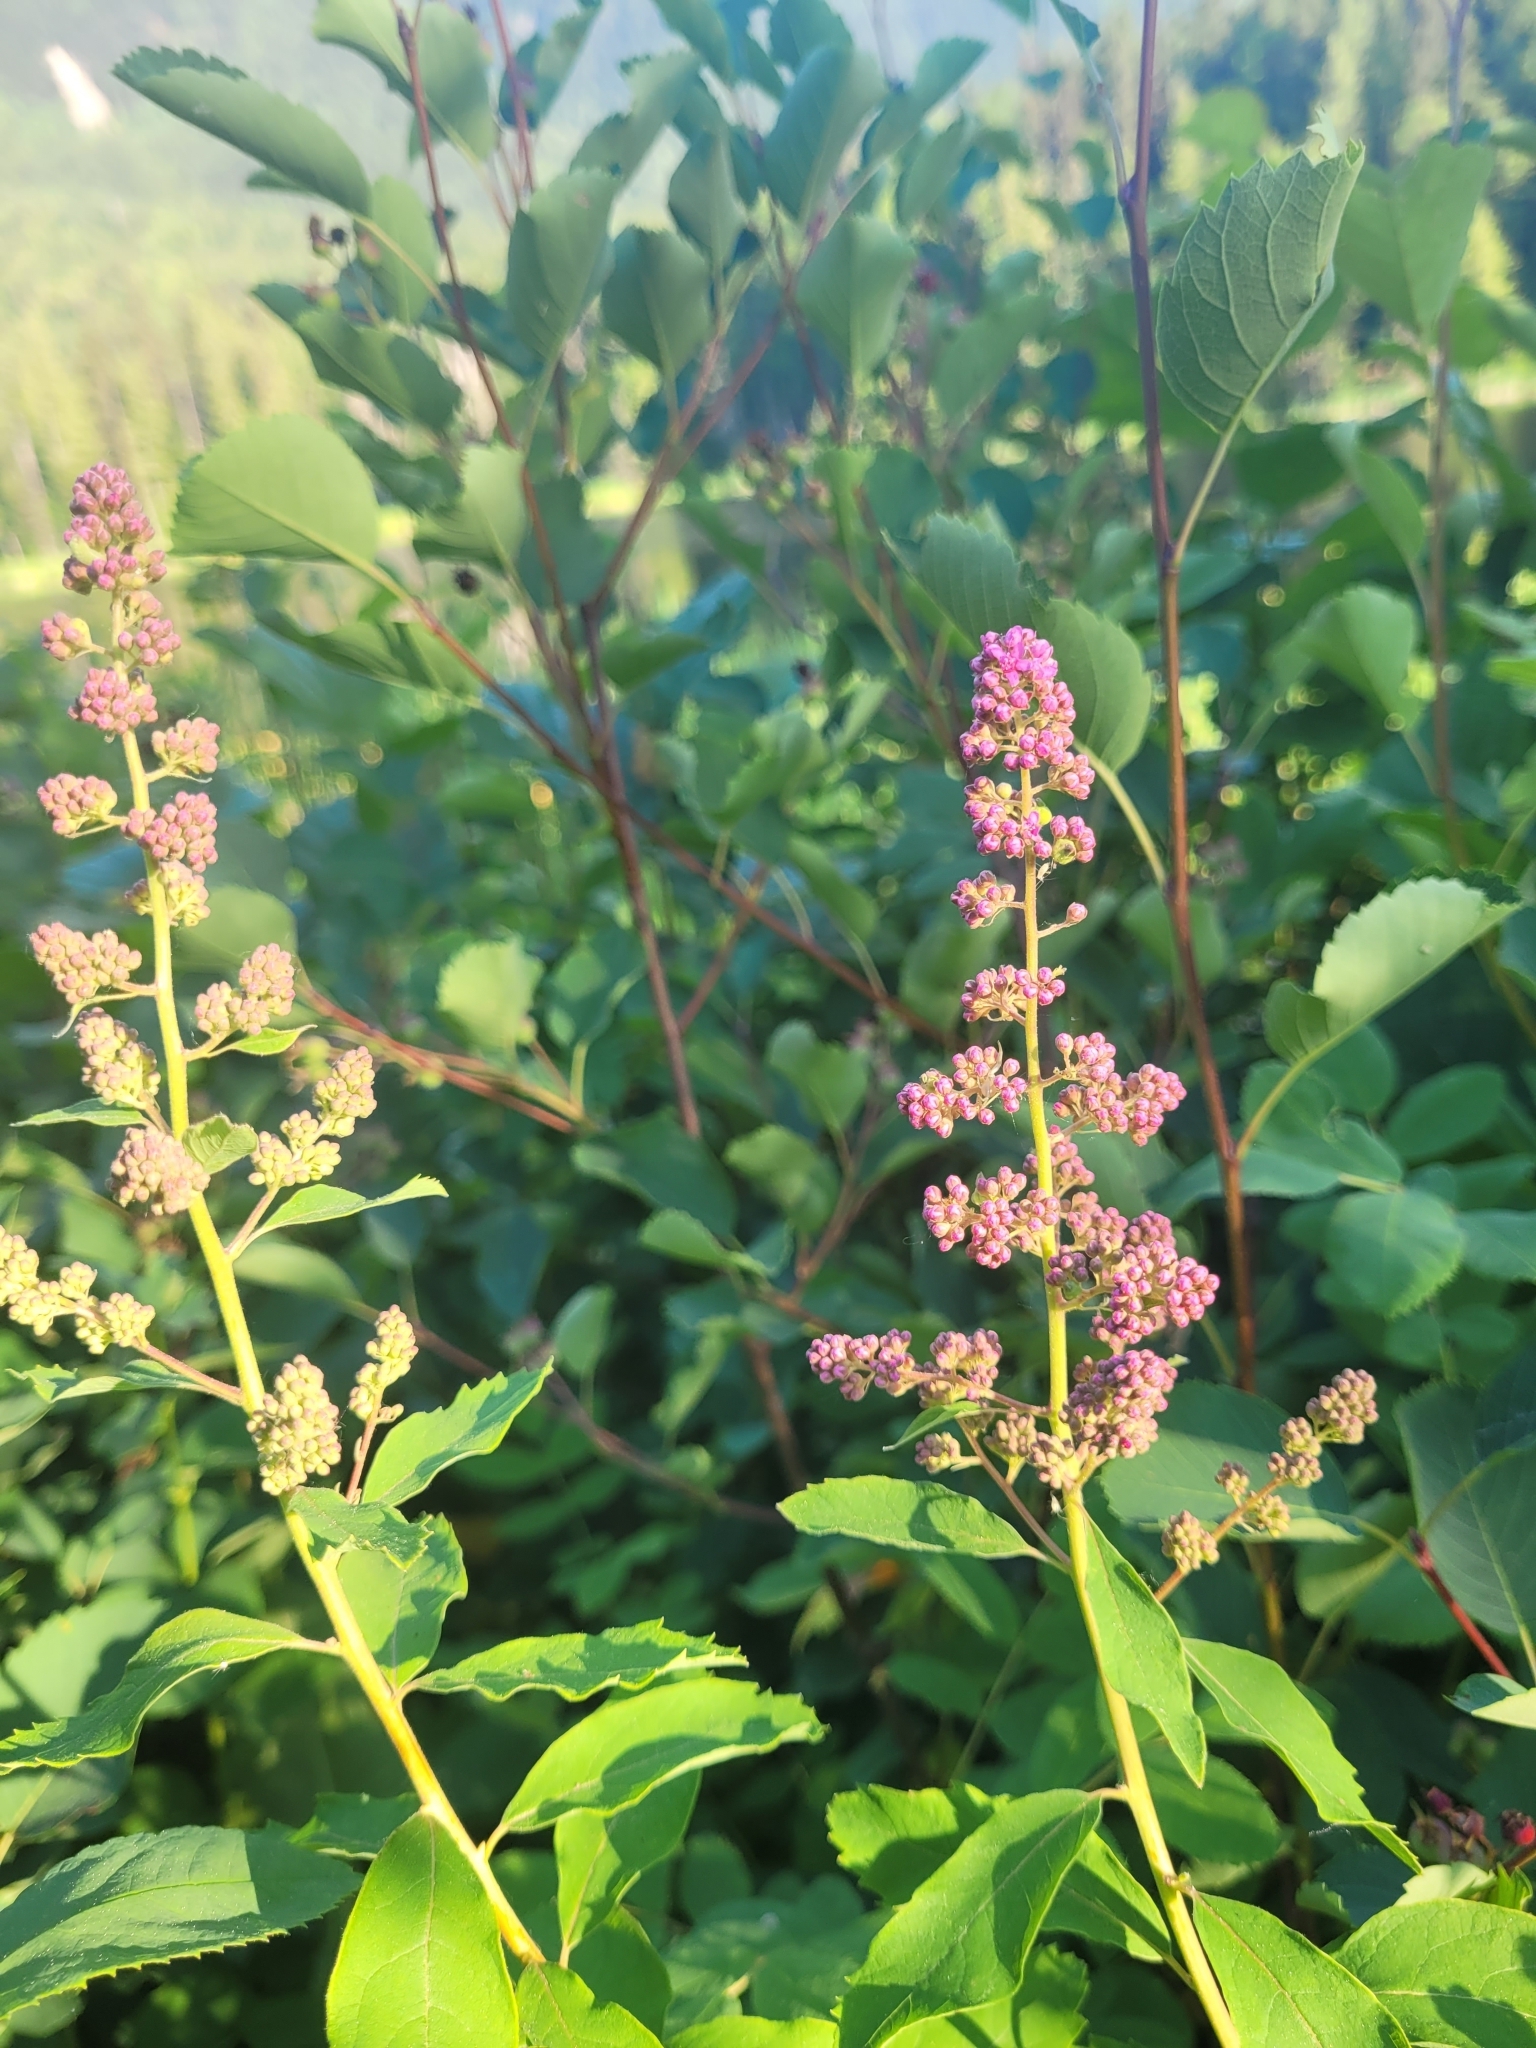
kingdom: Plantae
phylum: Tracheophyta
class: Magnoliopsida
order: Rosales
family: Rosaceae
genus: Spiraea
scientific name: Spiraea douglasii
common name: Steeplebush
